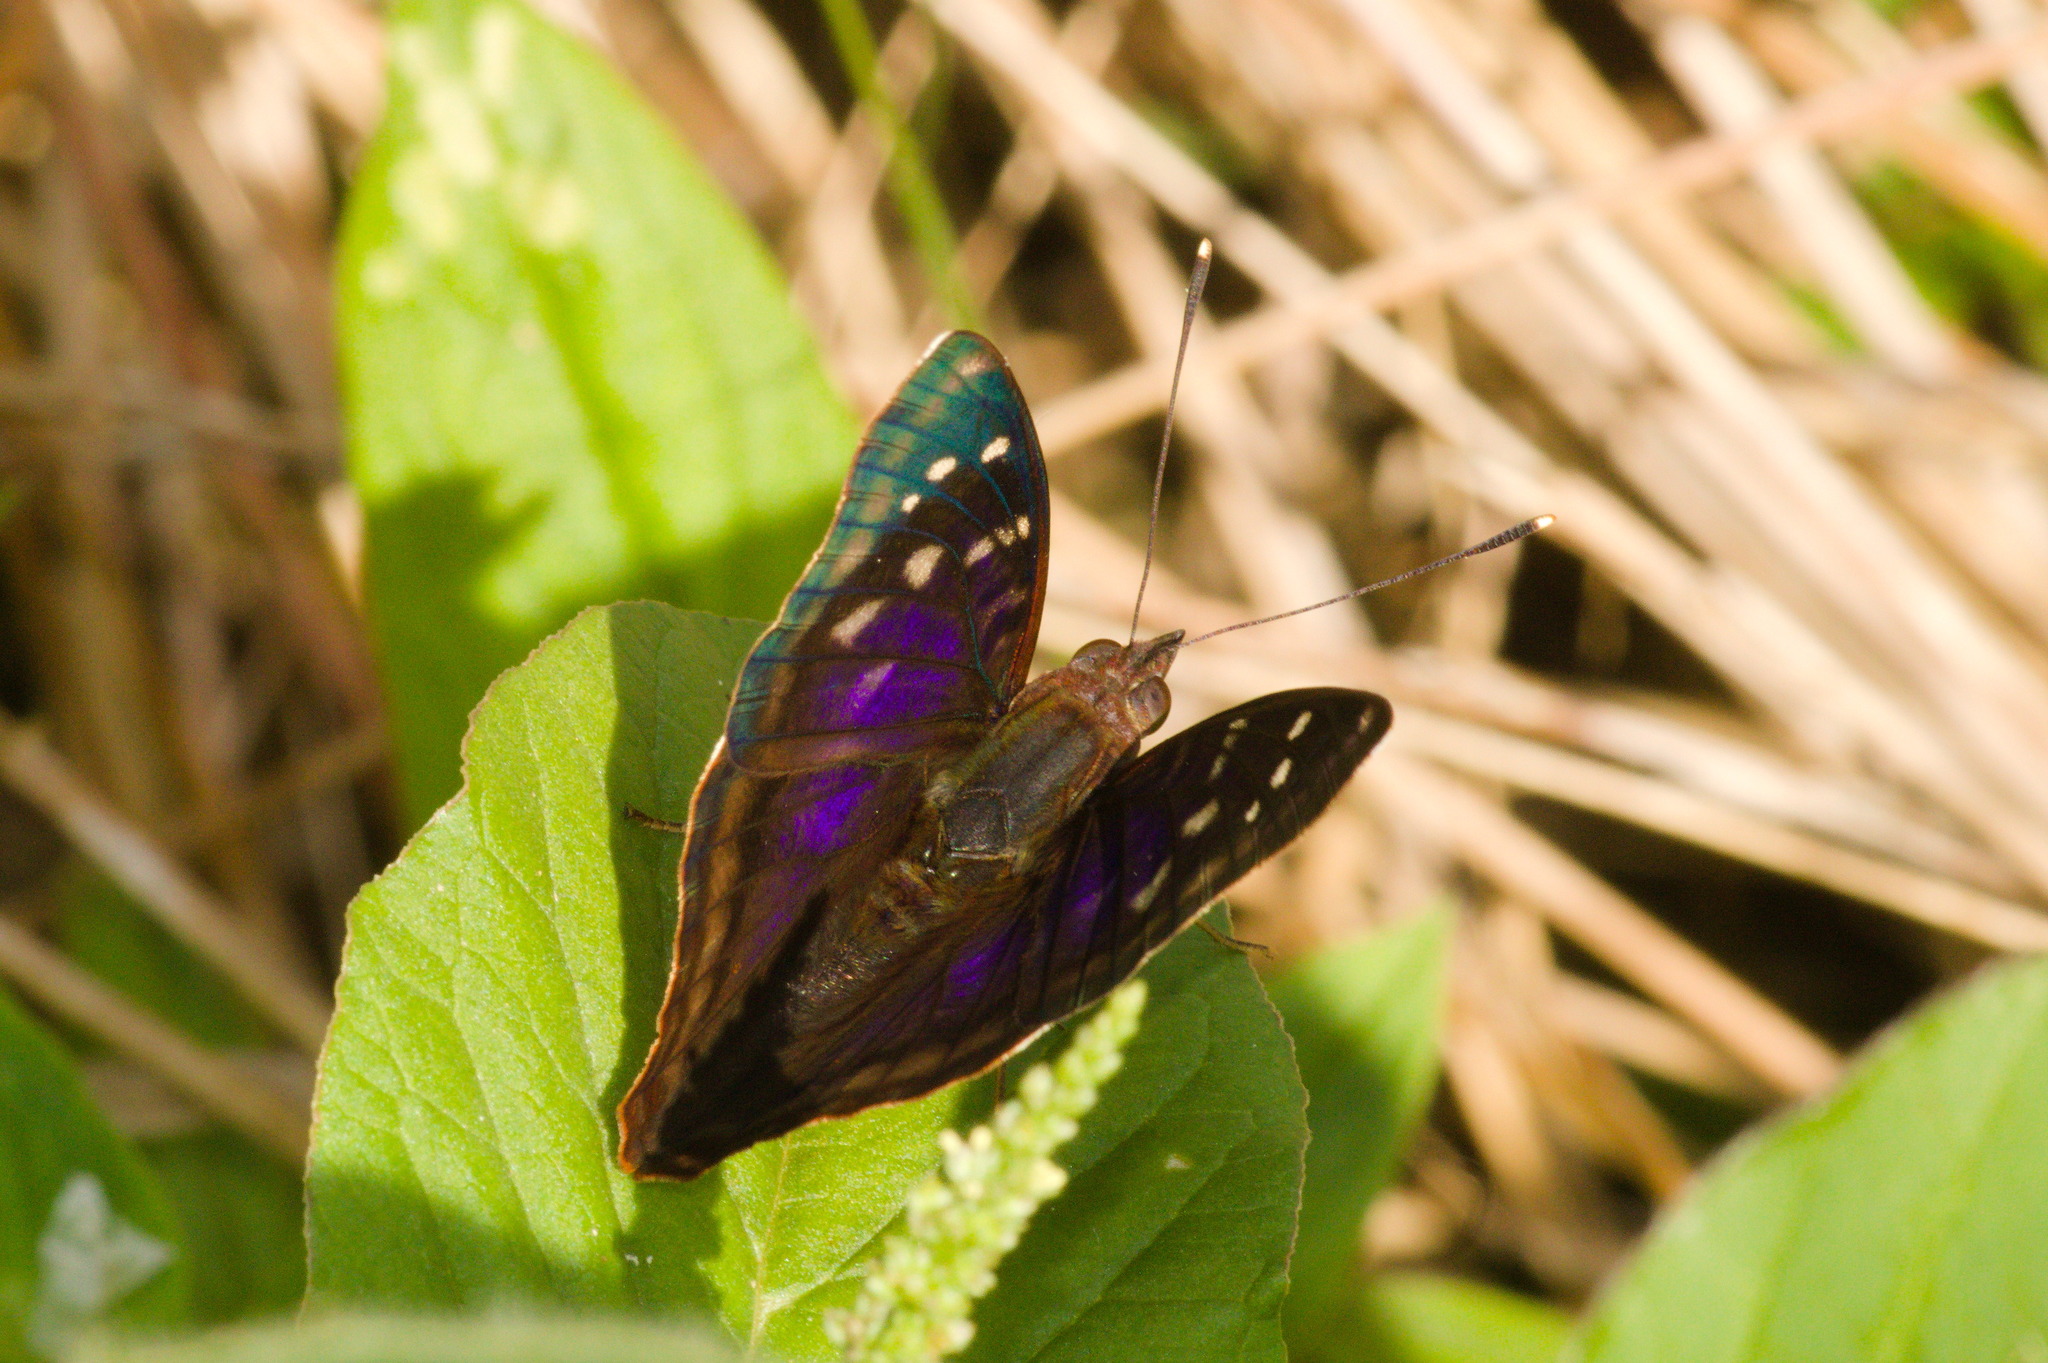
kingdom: Animalia
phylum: Arthropoda
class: Insecta
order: Lepidoptera
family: Nymphalidae
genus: Doxocopa
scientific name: Doxocopa kallina
